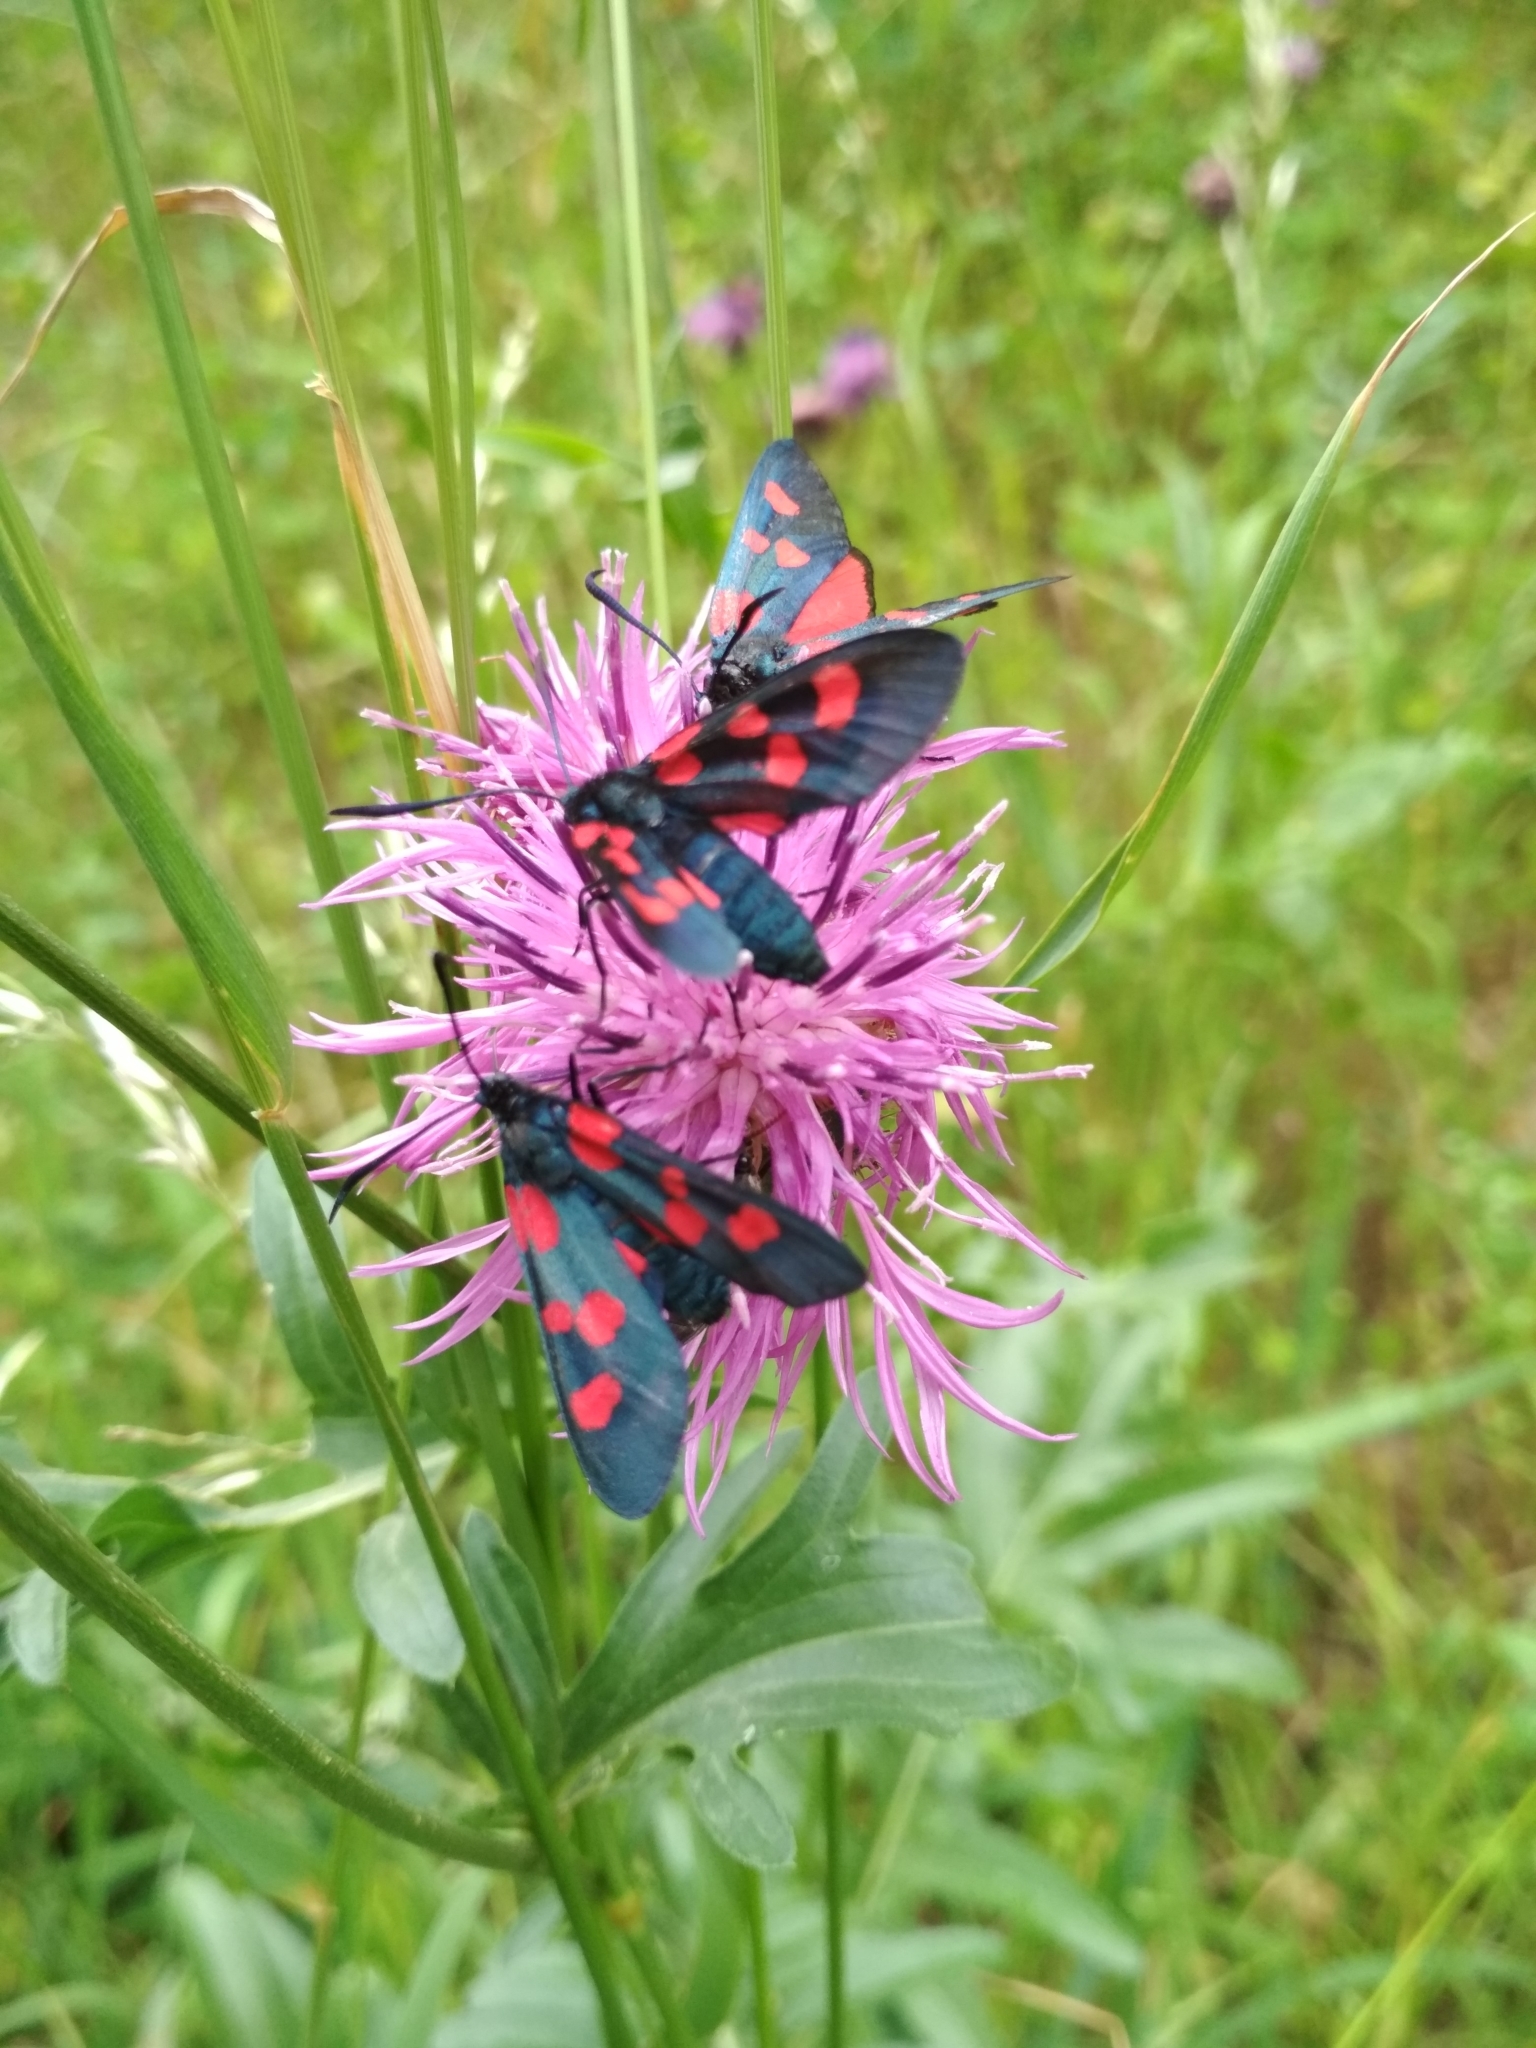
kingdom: Animalia
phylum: Arthropoda
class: Insecta
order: Lepidoptera
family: Zygaenidae
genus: Zygaena
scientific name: Zygaena lonicerae
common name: Narrow-bordered five-spot burnet
